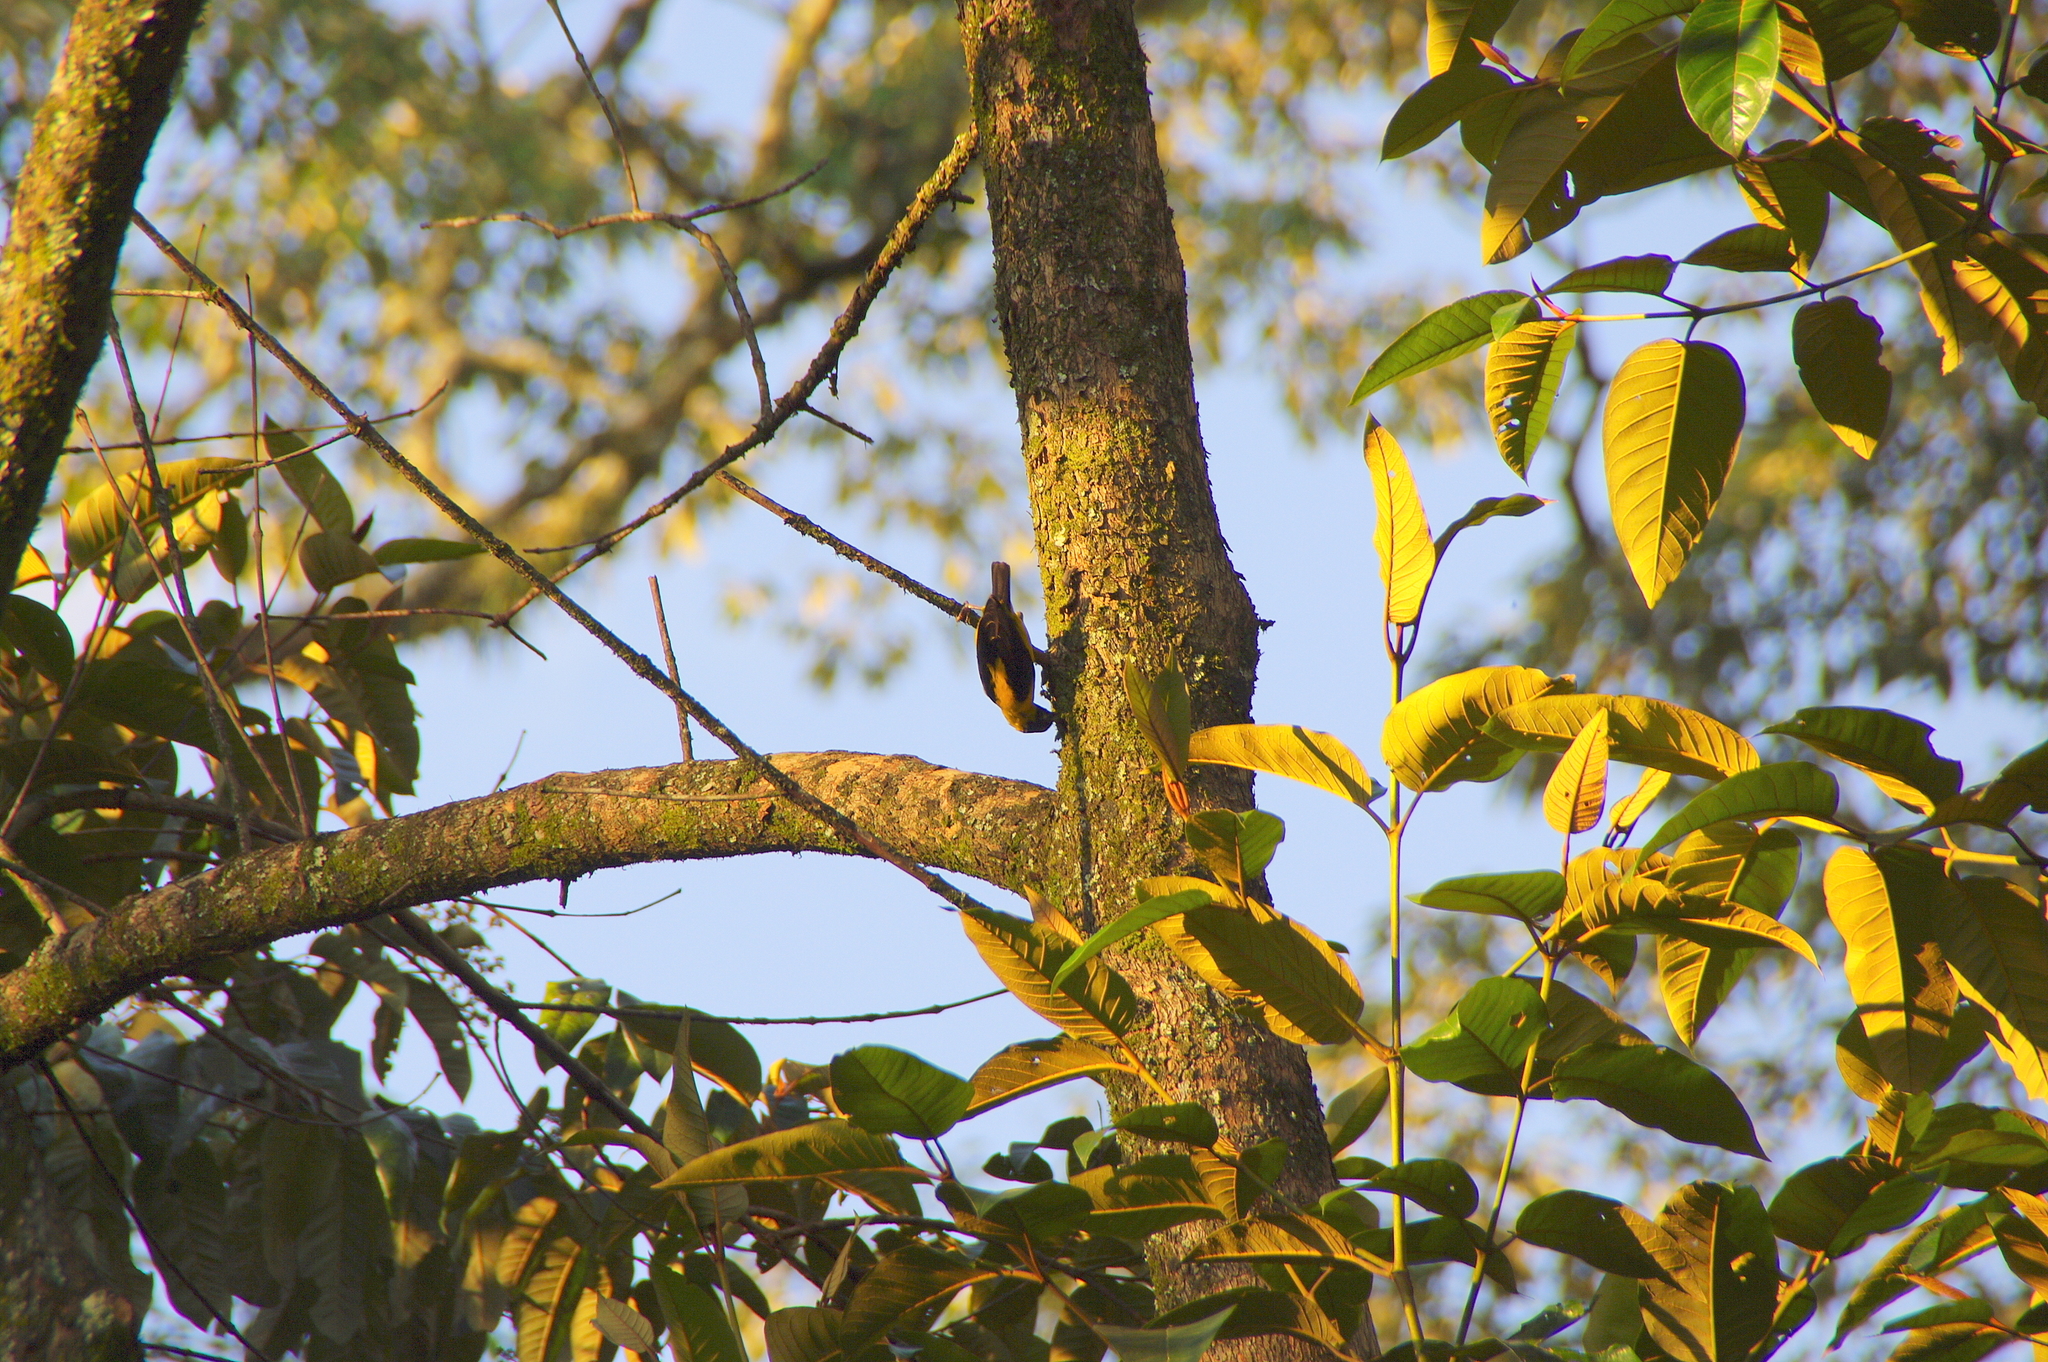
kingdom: Animalia
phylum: Chordata
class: Aves
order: Passeriformes
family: Ploceidae
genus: Ploceus
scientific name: Ploceus insignis
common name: Brown-capped weaver
